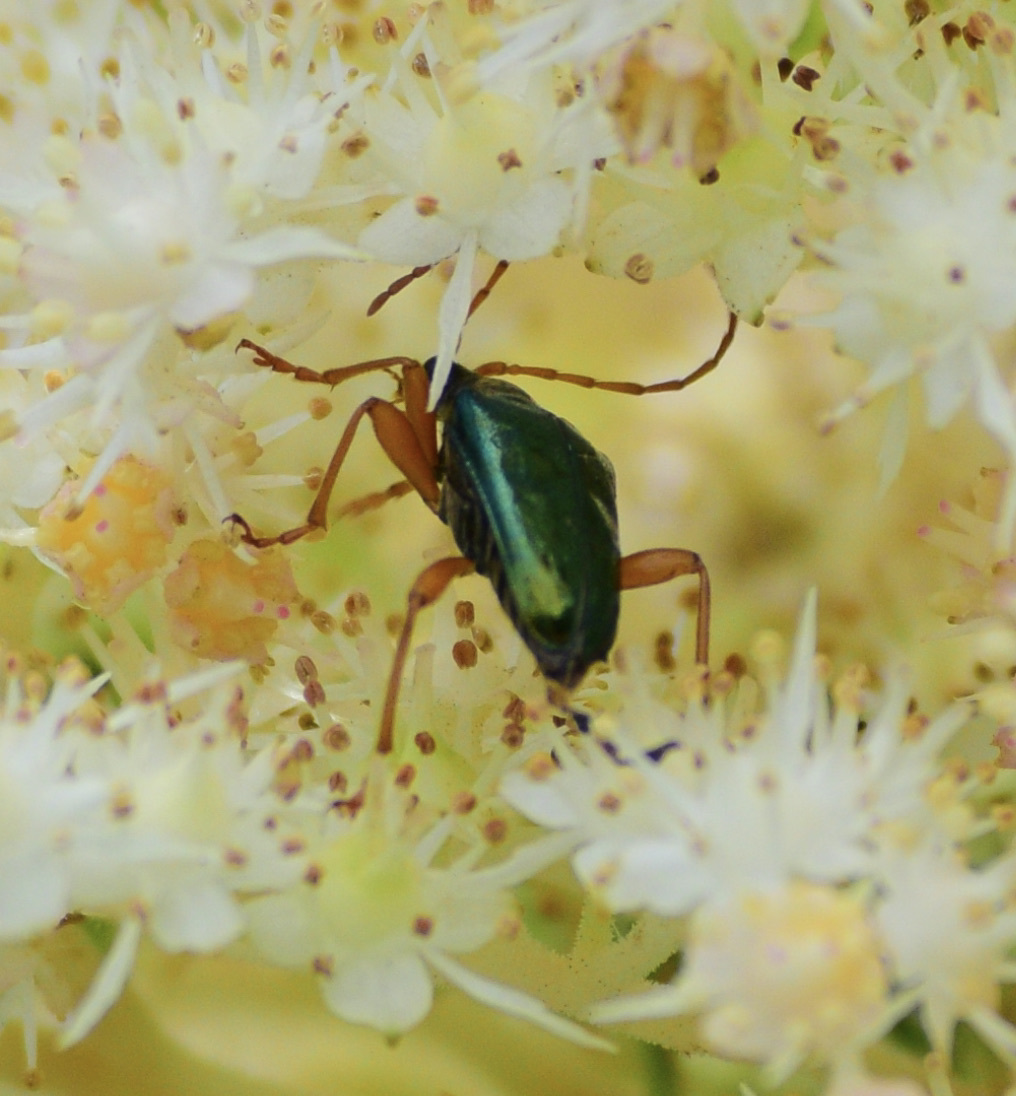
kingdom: Animalia
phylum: Arthropoda
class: Insecta
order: Coleoptera
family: Cerambycidae
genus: Gaurotes
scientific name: Gaurotes cyanipennis
